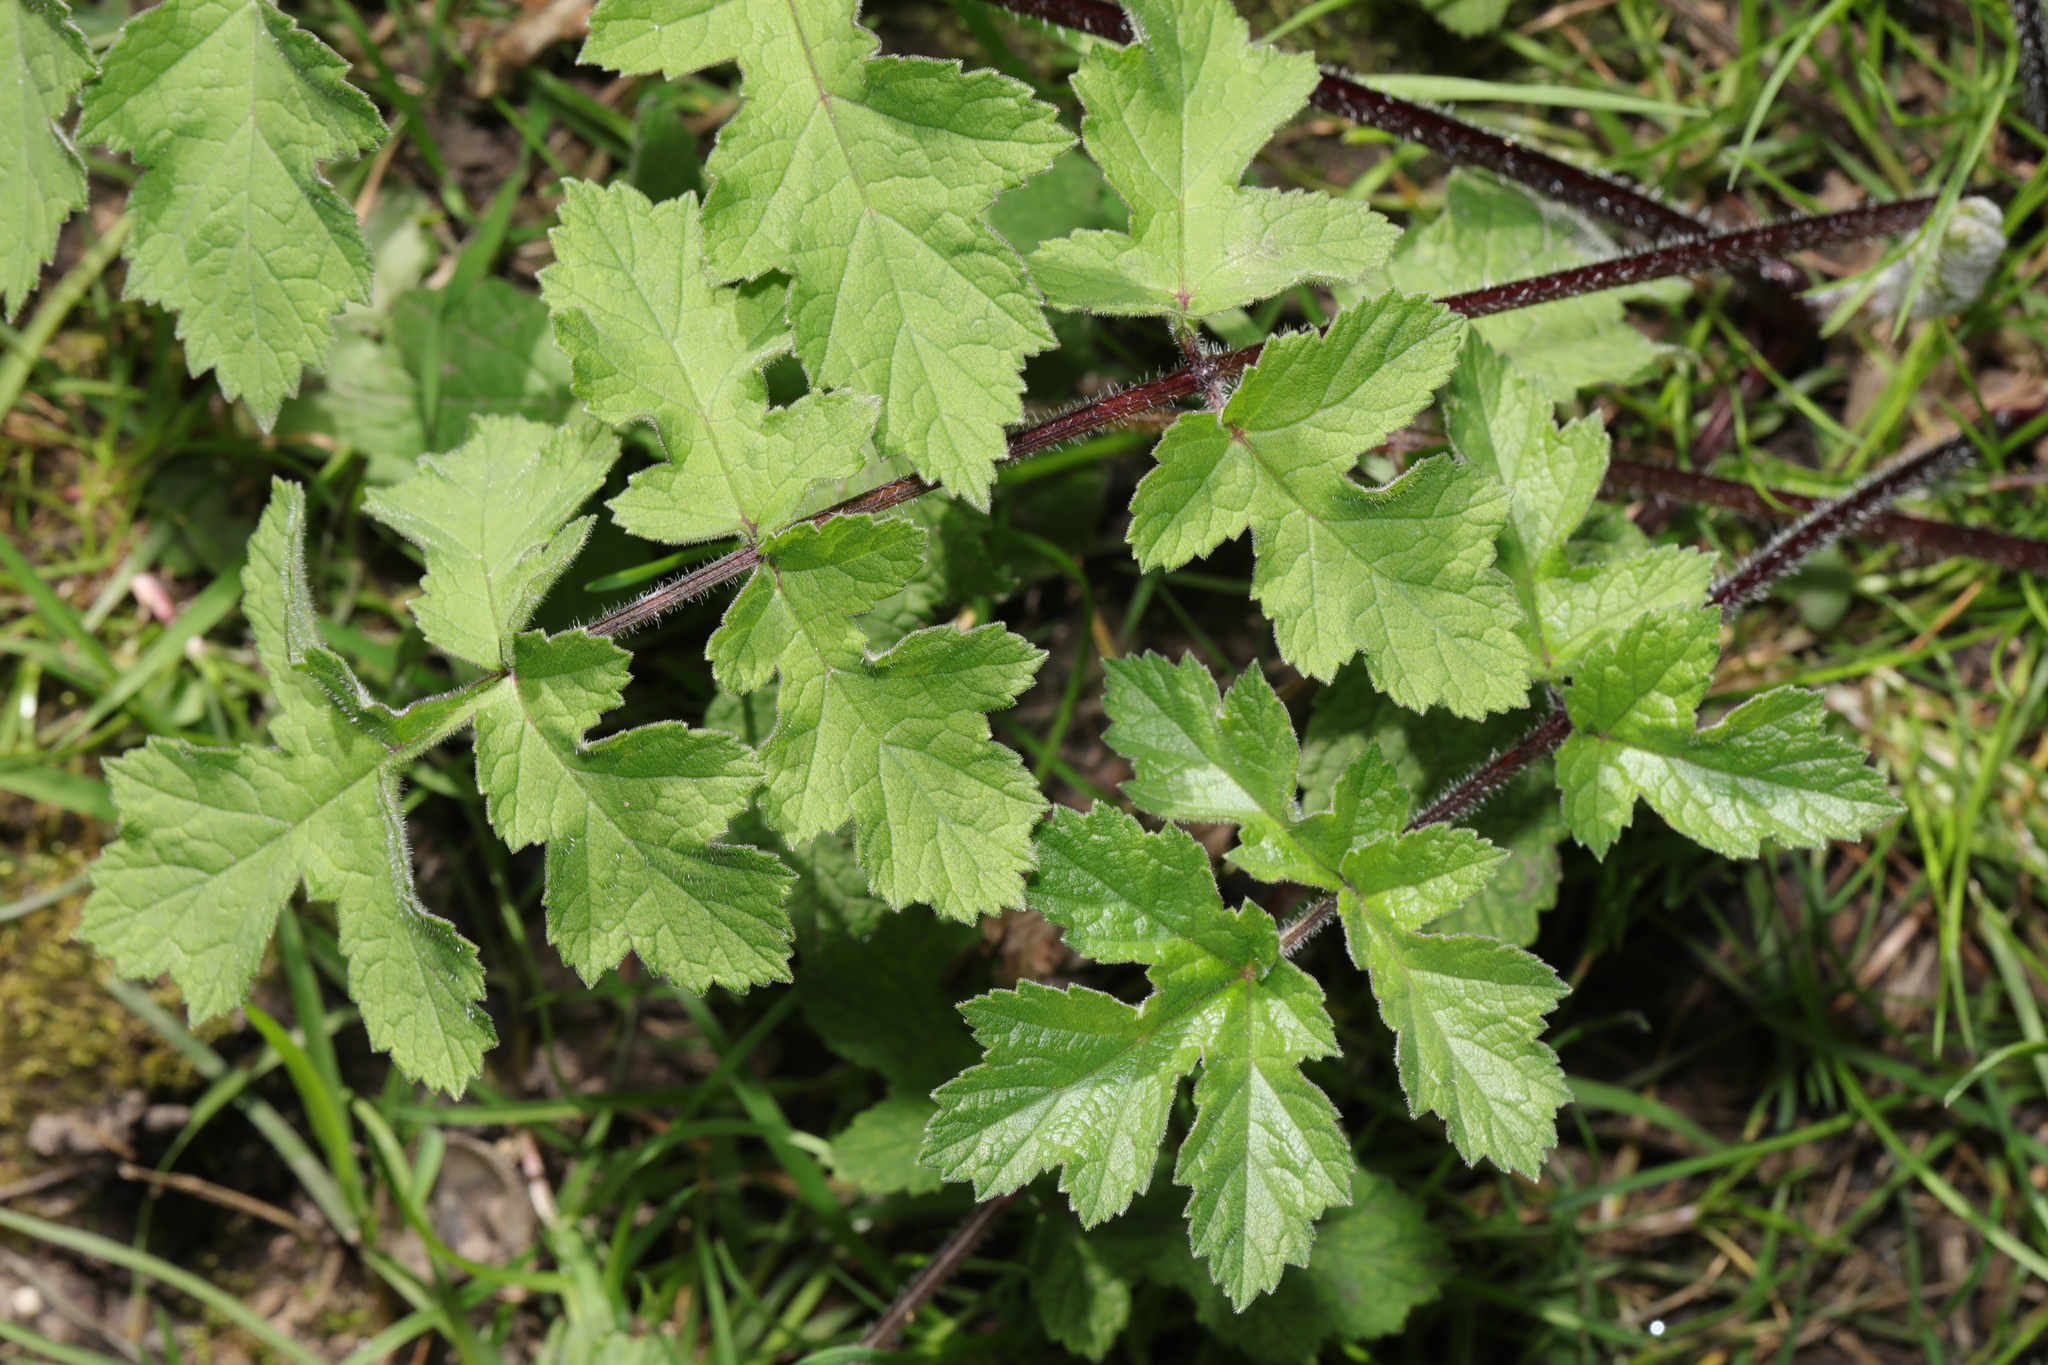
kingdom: Plantae
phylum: Tracheophyta
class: Magnoliopsida
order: Apiales
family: Apiaceae
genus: Heracleum
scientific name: Heracleum sphondylium
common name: Hogweed
